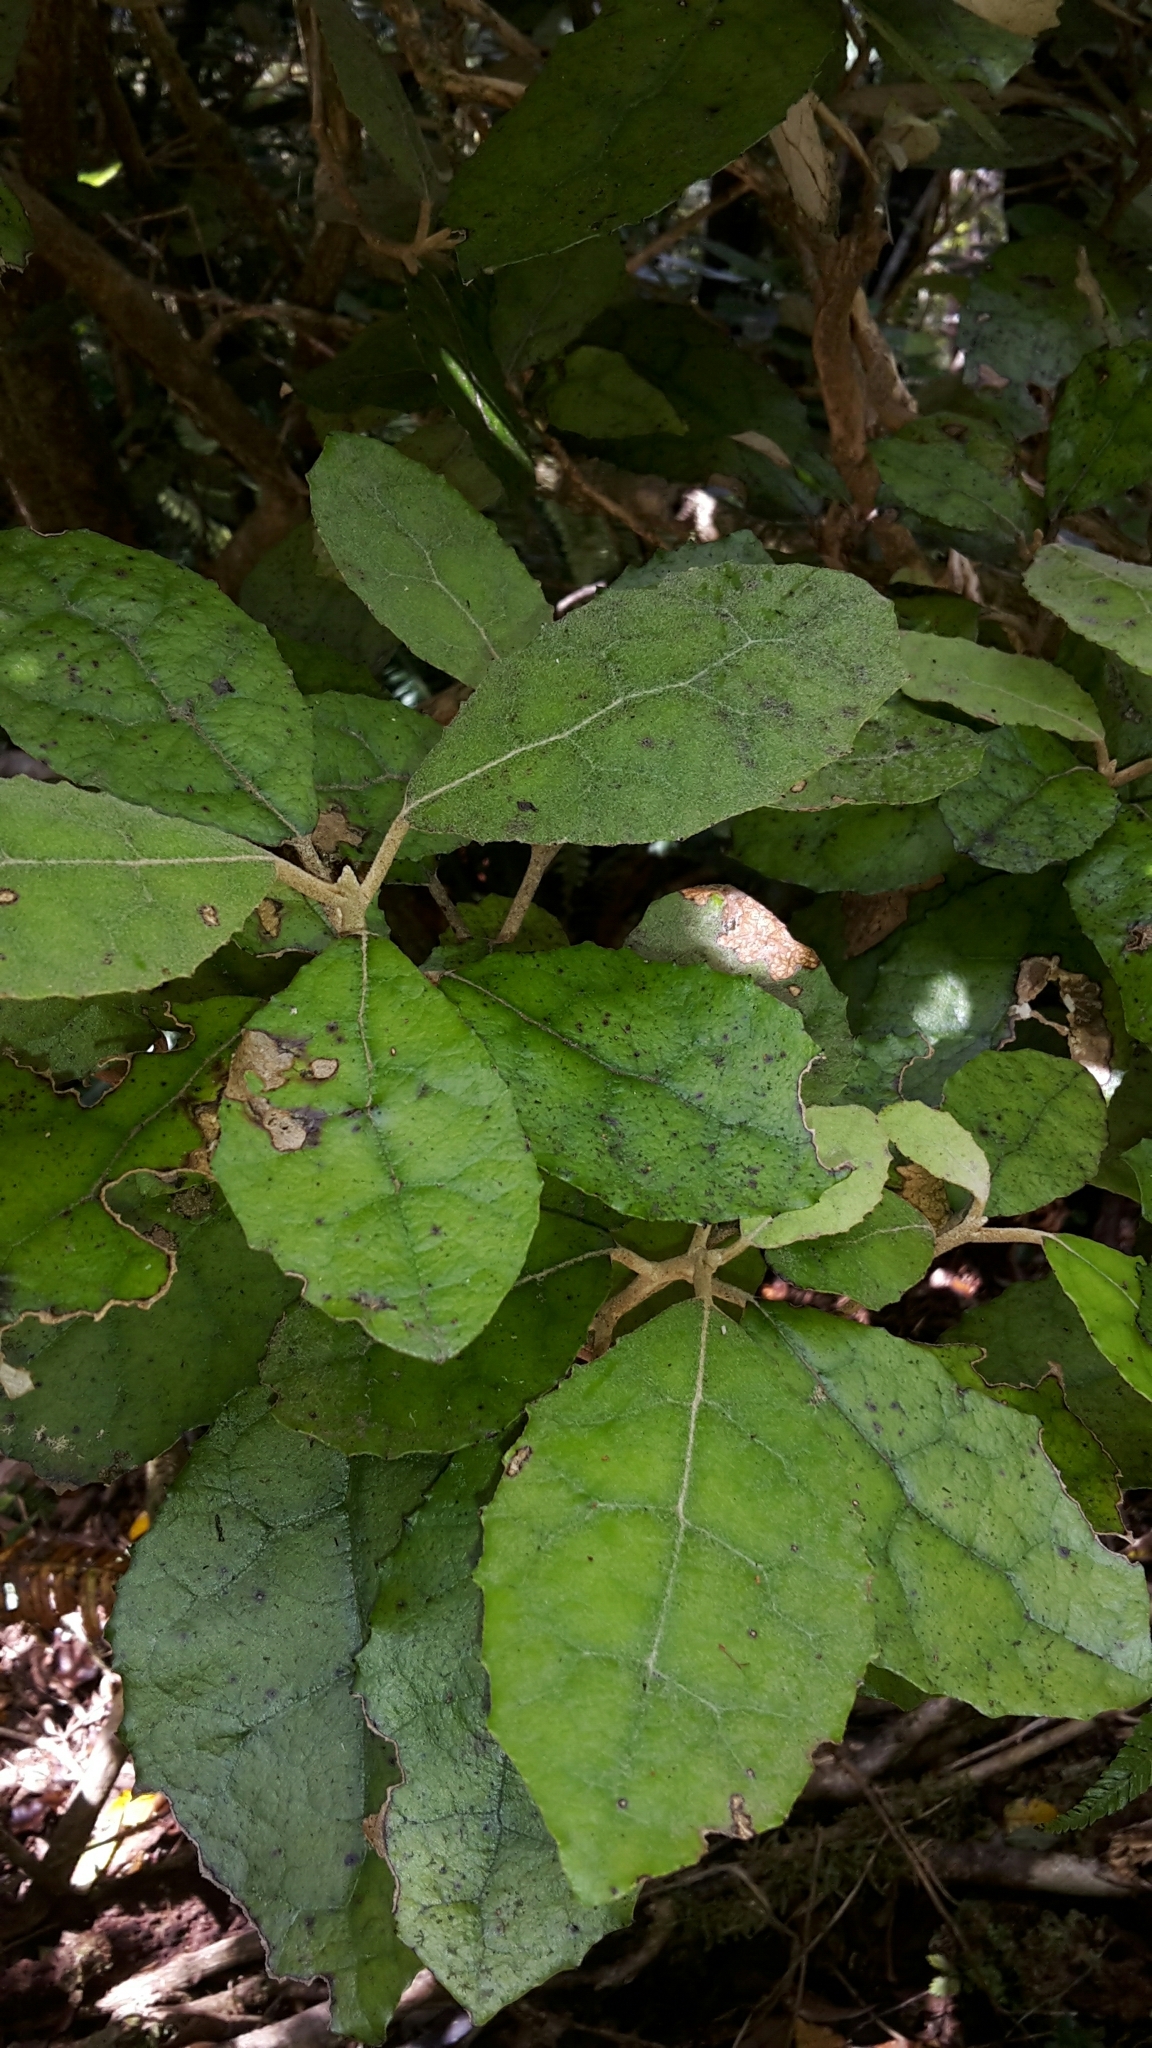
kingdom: Plantae
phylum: Tracheophyta
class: Magnoliopsida
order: Asterales
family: Asteraceae
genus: Olearia
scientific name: Olearia rani
